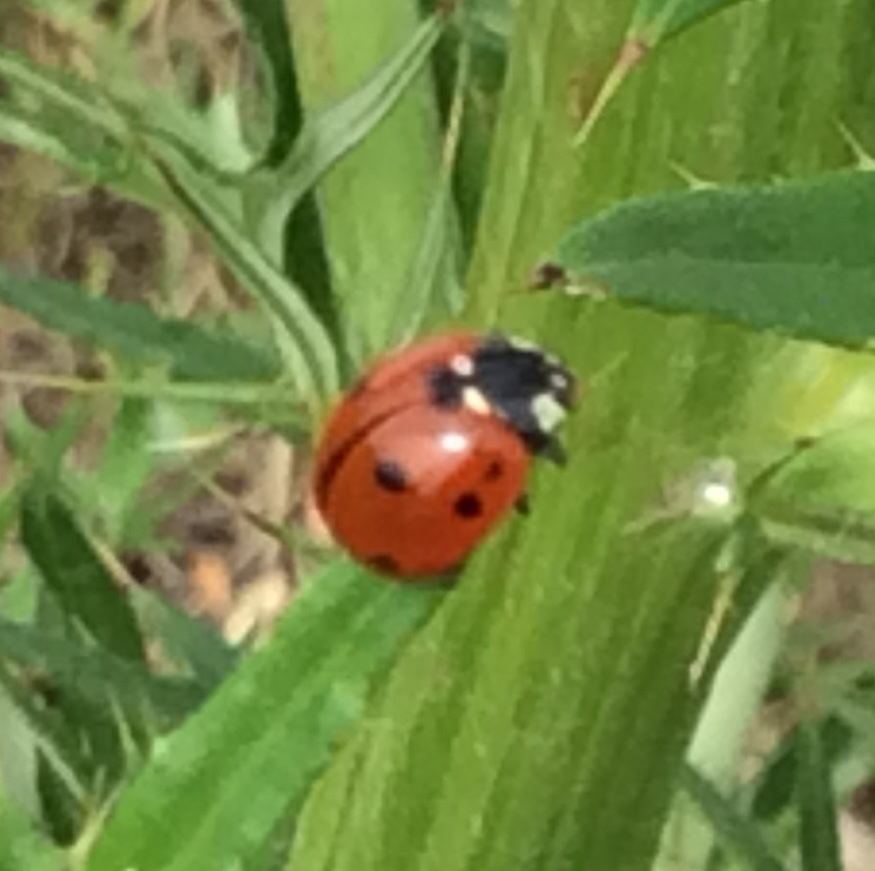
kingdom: Animalia
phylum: Arthropoda
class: Insecta
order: Coleoptera
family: Coccinellidae
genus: Coccinella
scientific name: Coccinella septempunctata
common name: Sevenspotted lady beetle
